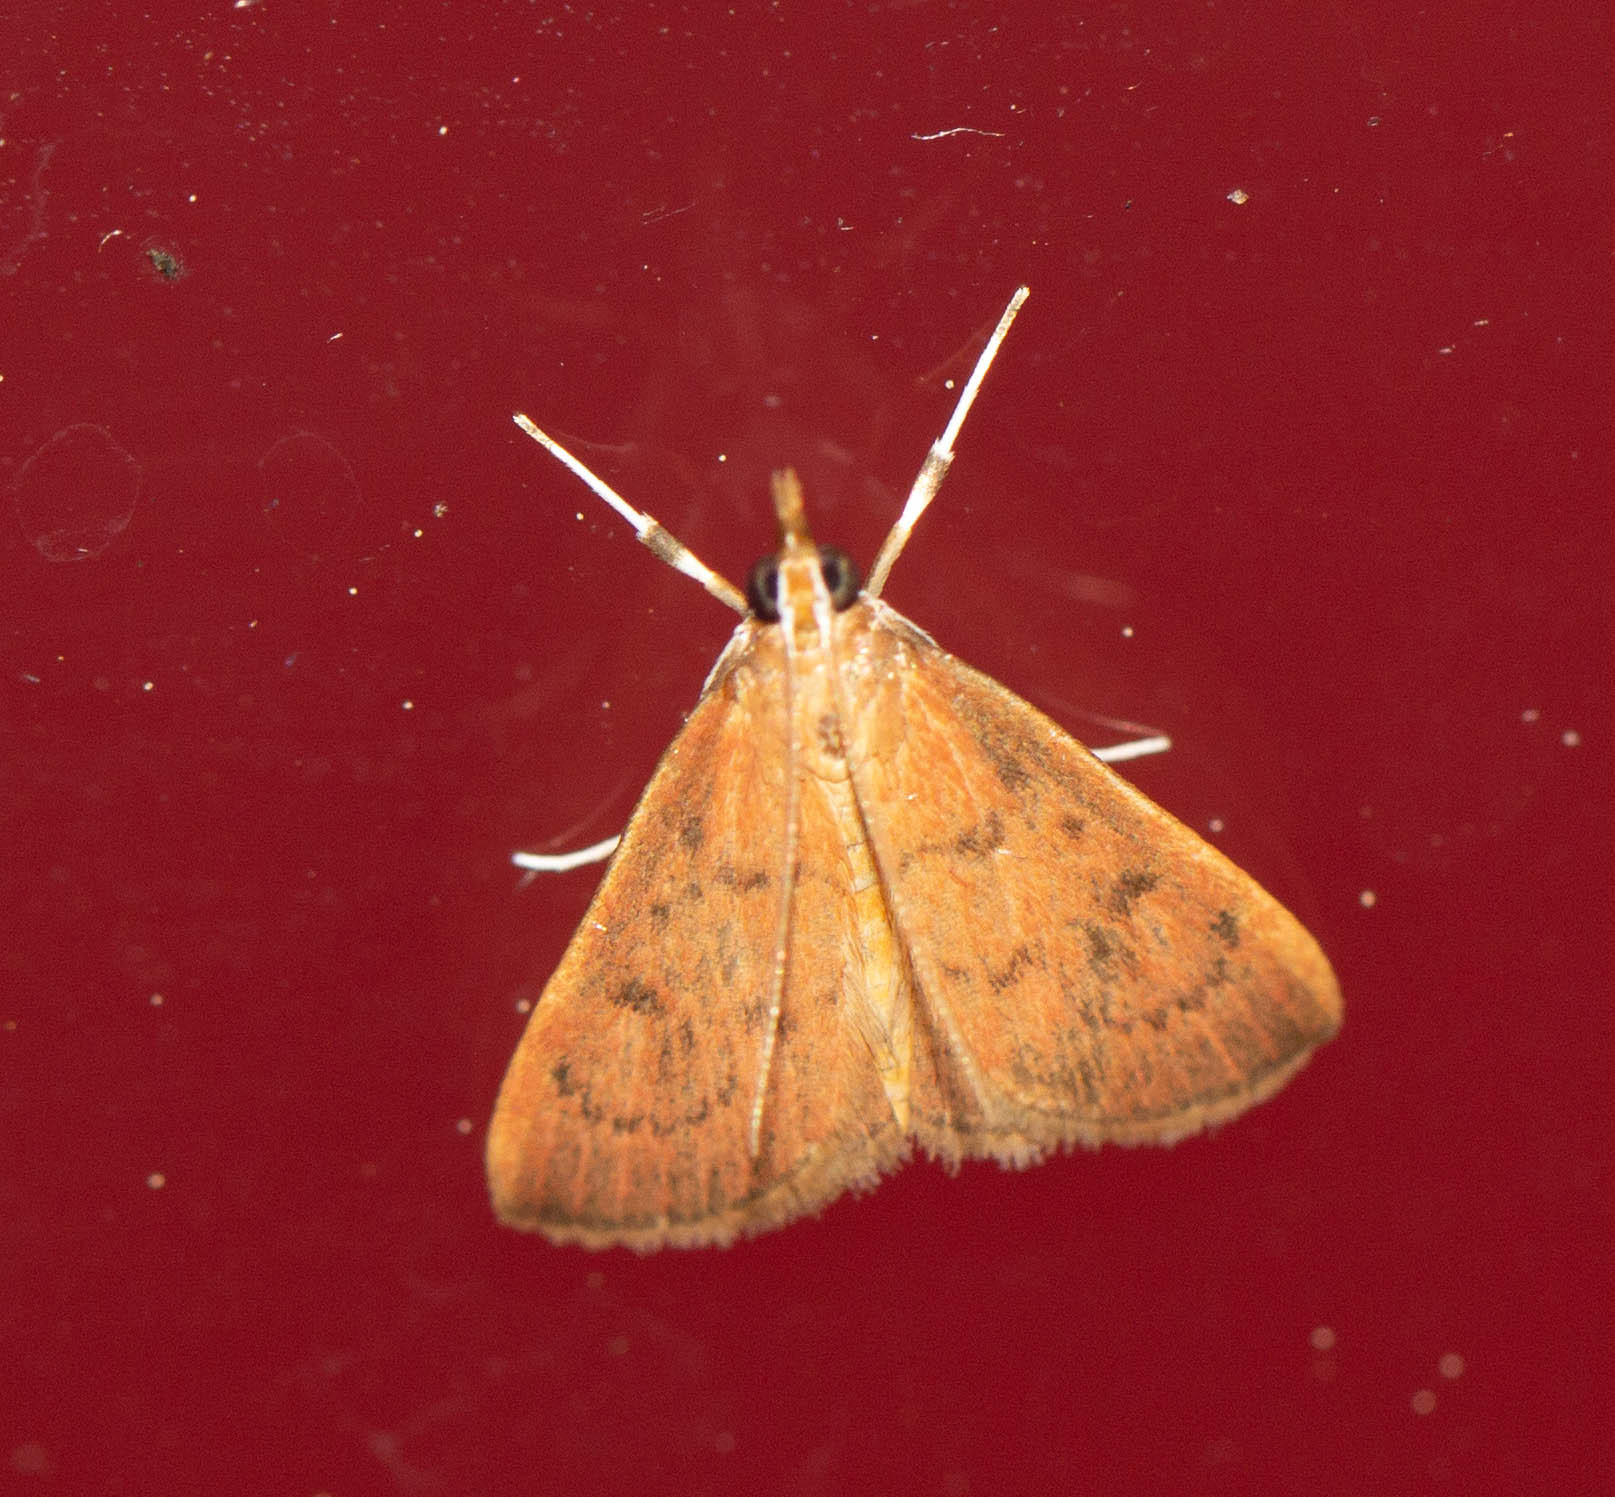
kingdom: Animalia
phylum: Arthropoda
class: Insecta
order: Lepidoptera
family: Crambidae
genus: Oenobotys
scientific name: Oenobotys vinotinctalis
